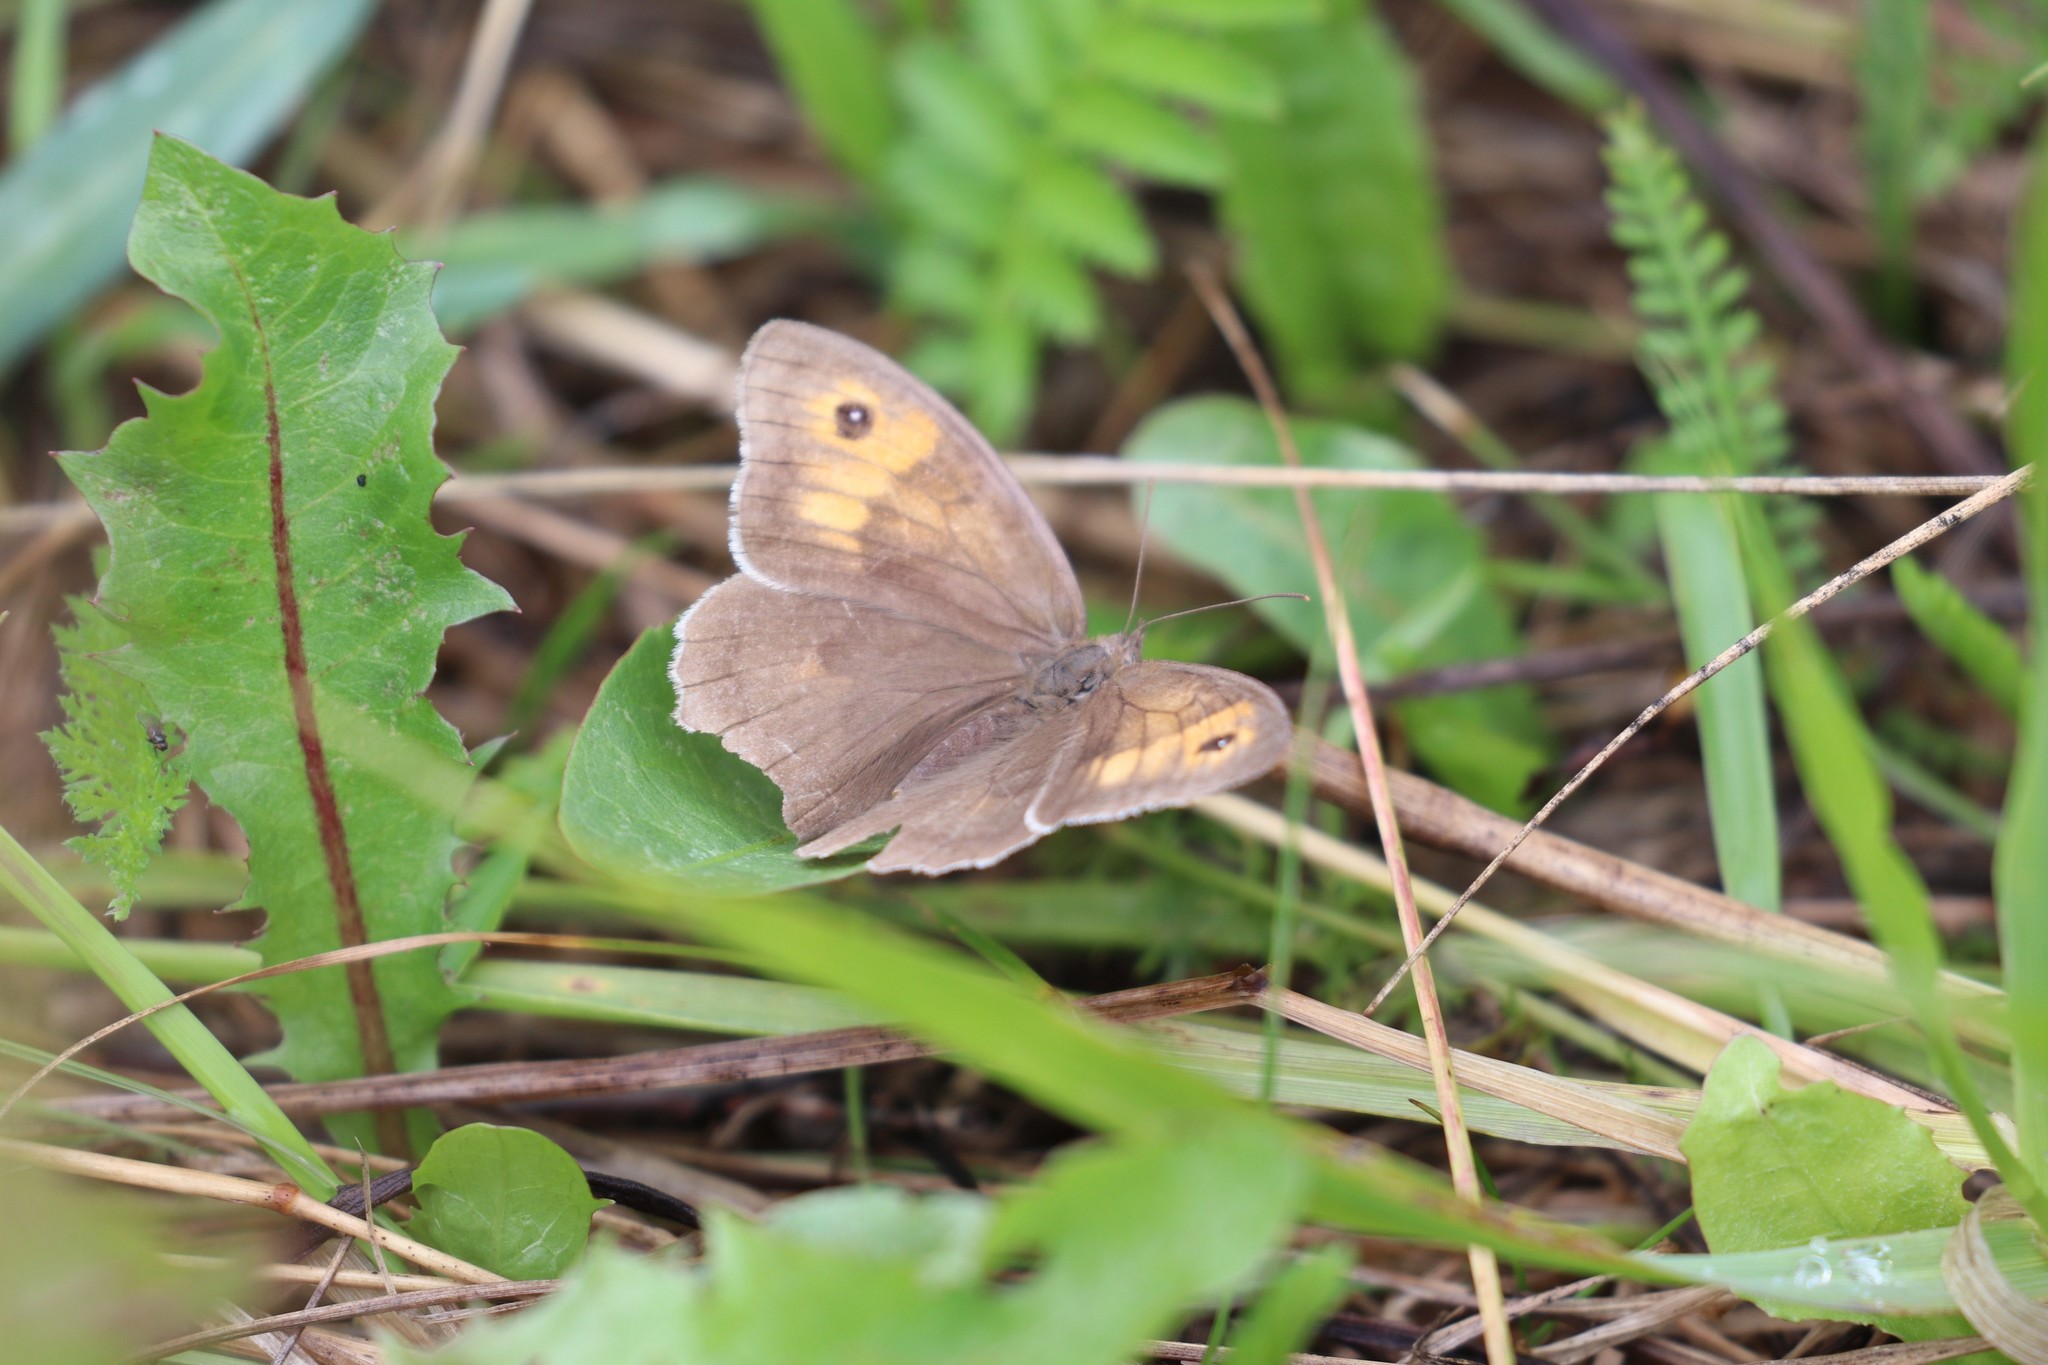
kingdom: Animalia
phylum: Arthropoda
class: Insecta
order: Lepidoptera
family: Nymphalidae
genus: Maniola
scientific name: Maniola jurtina
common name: Meadow brown
